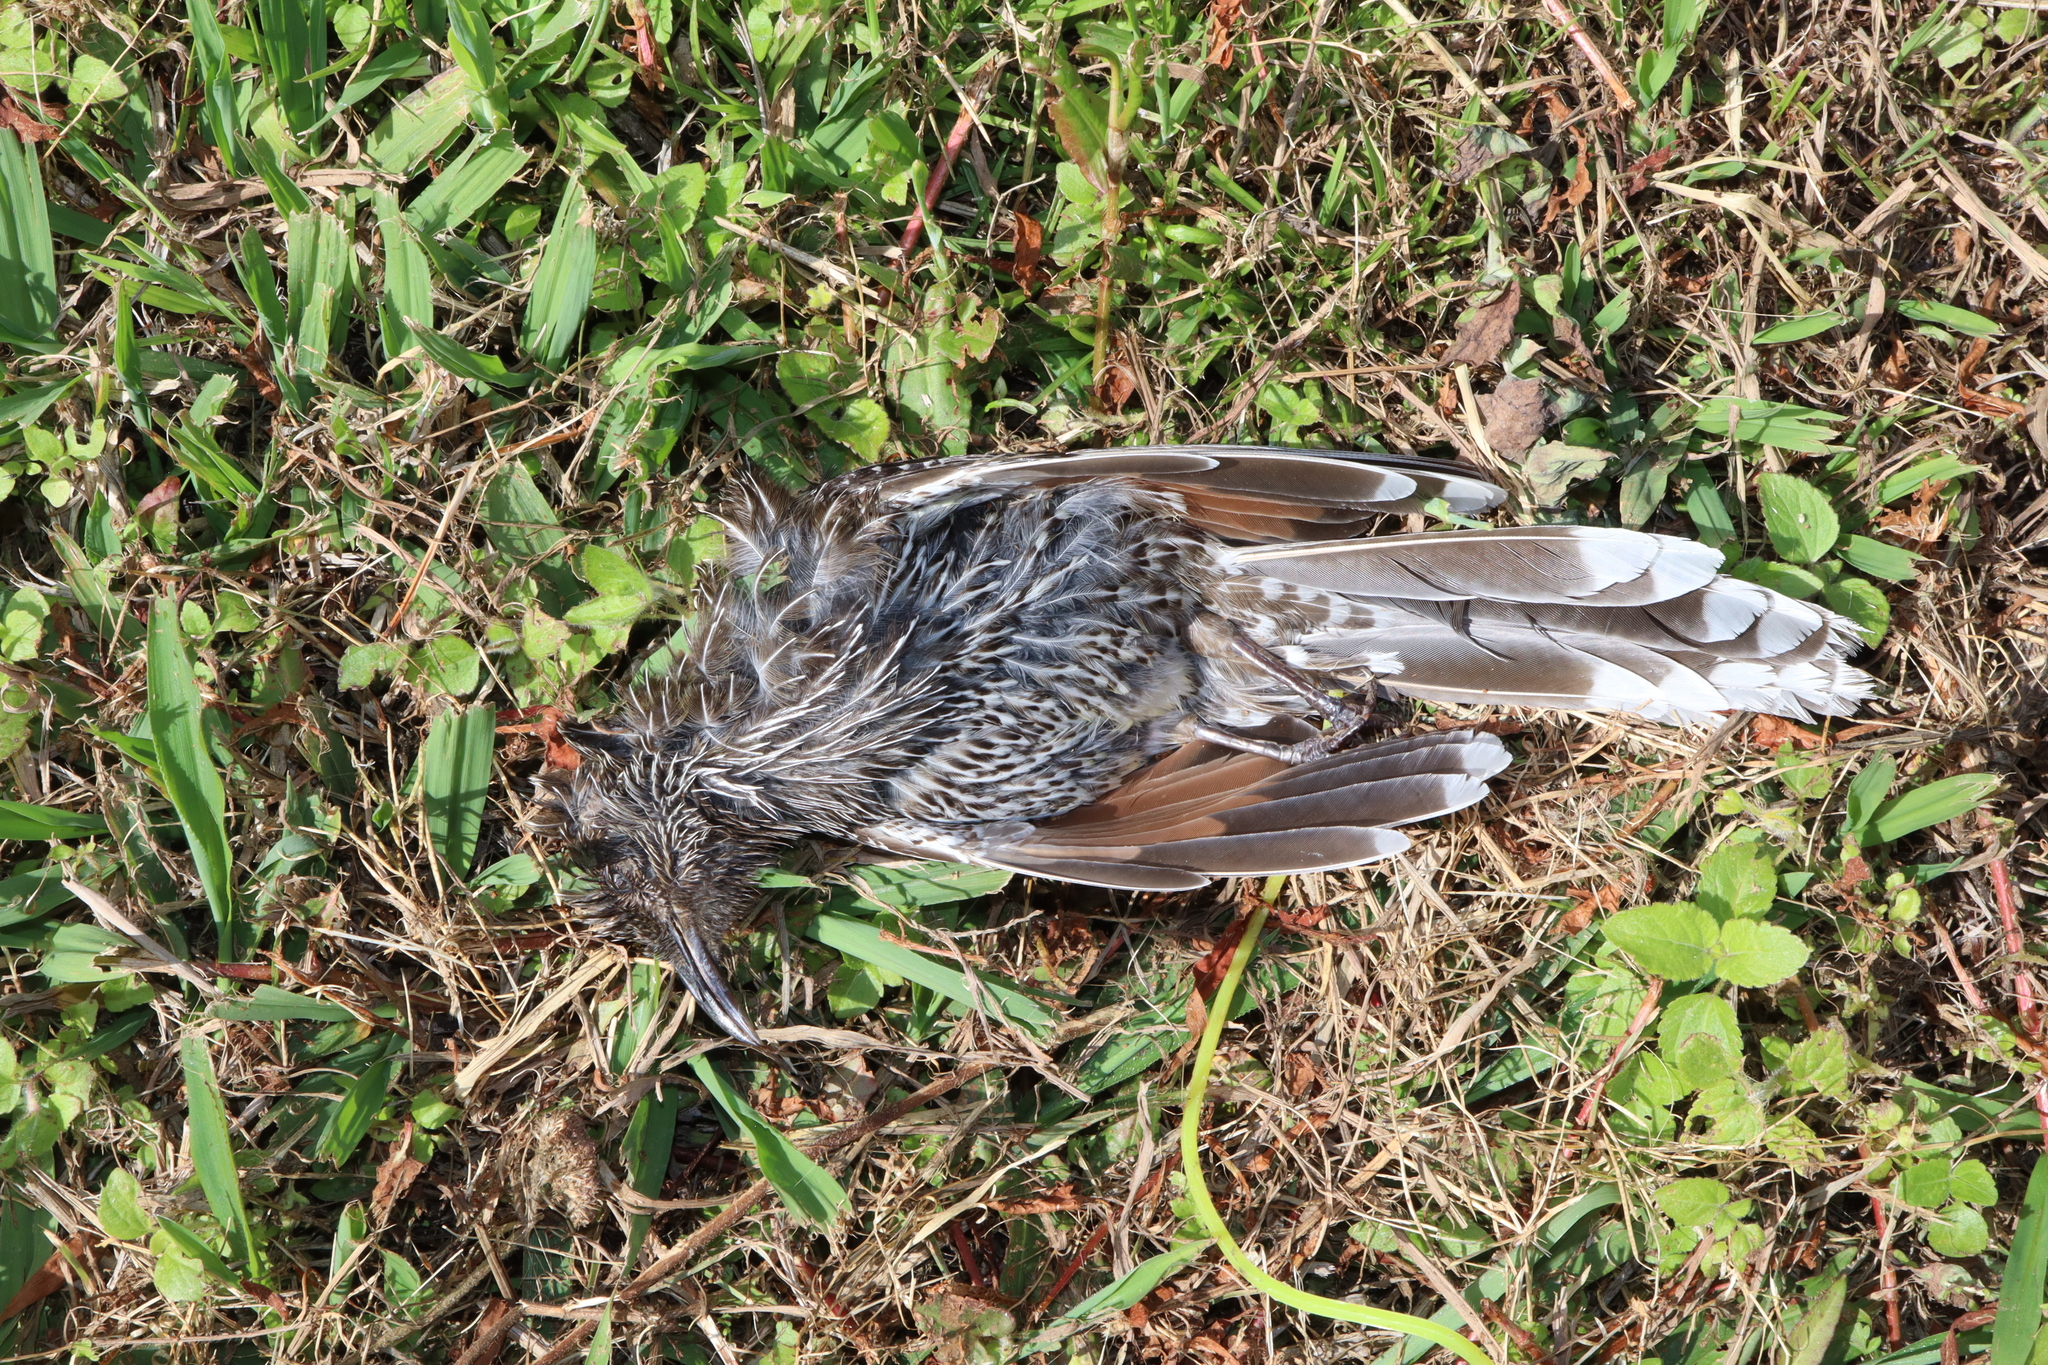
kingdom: Animalia
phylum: Chordata
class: Aves
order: Passeriformes
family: Meliphagidae
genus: Anthochaera
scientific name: Anthochaera chrysoptera
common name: Little wattlebird
